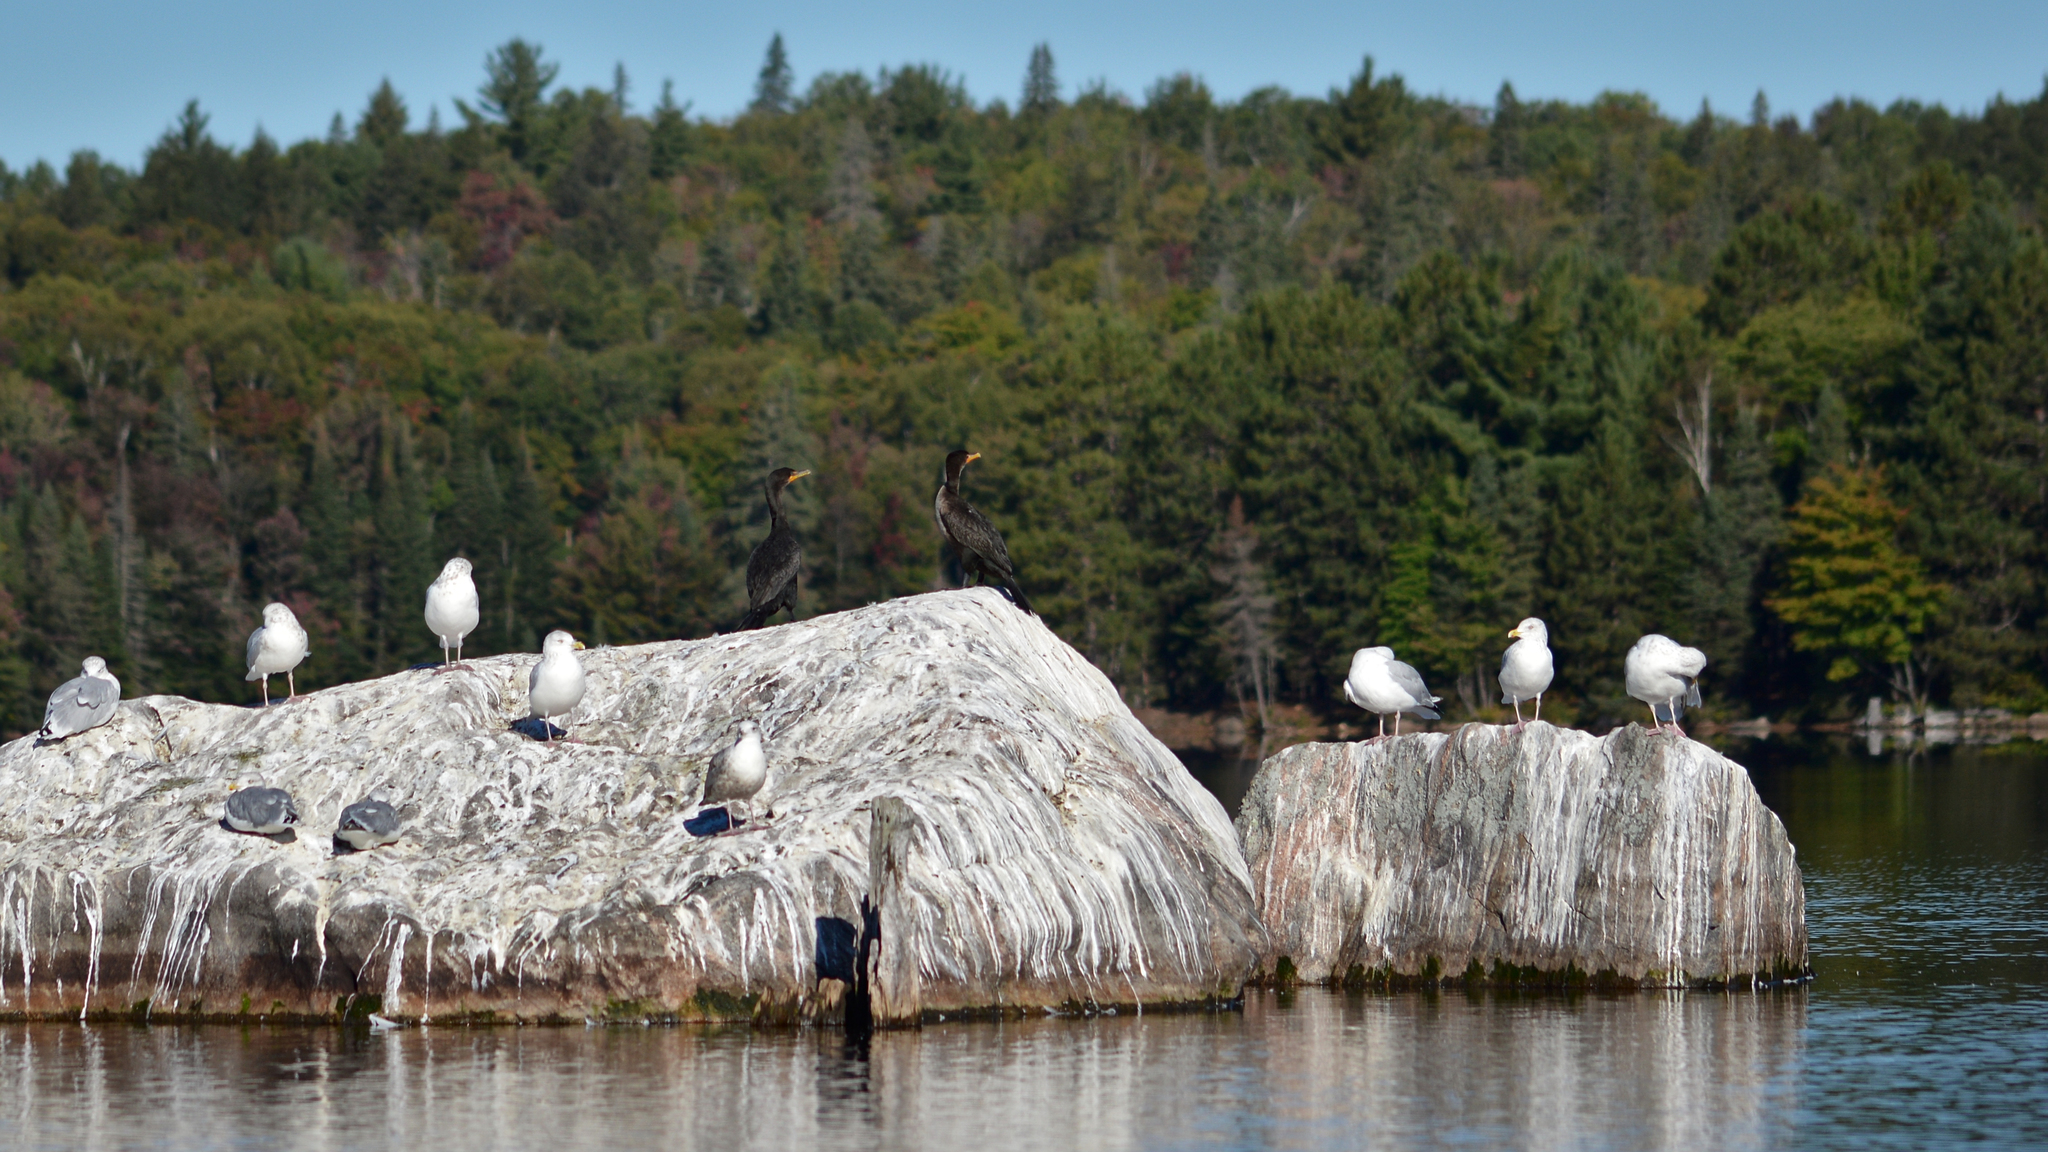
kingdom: Animalia
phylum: Chordata
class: Aves
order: Suliformes
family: Phalacrocoracidae
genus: Phalacrocorax
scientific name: Phalacrocorax auritus
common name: Double-crested cormorant
